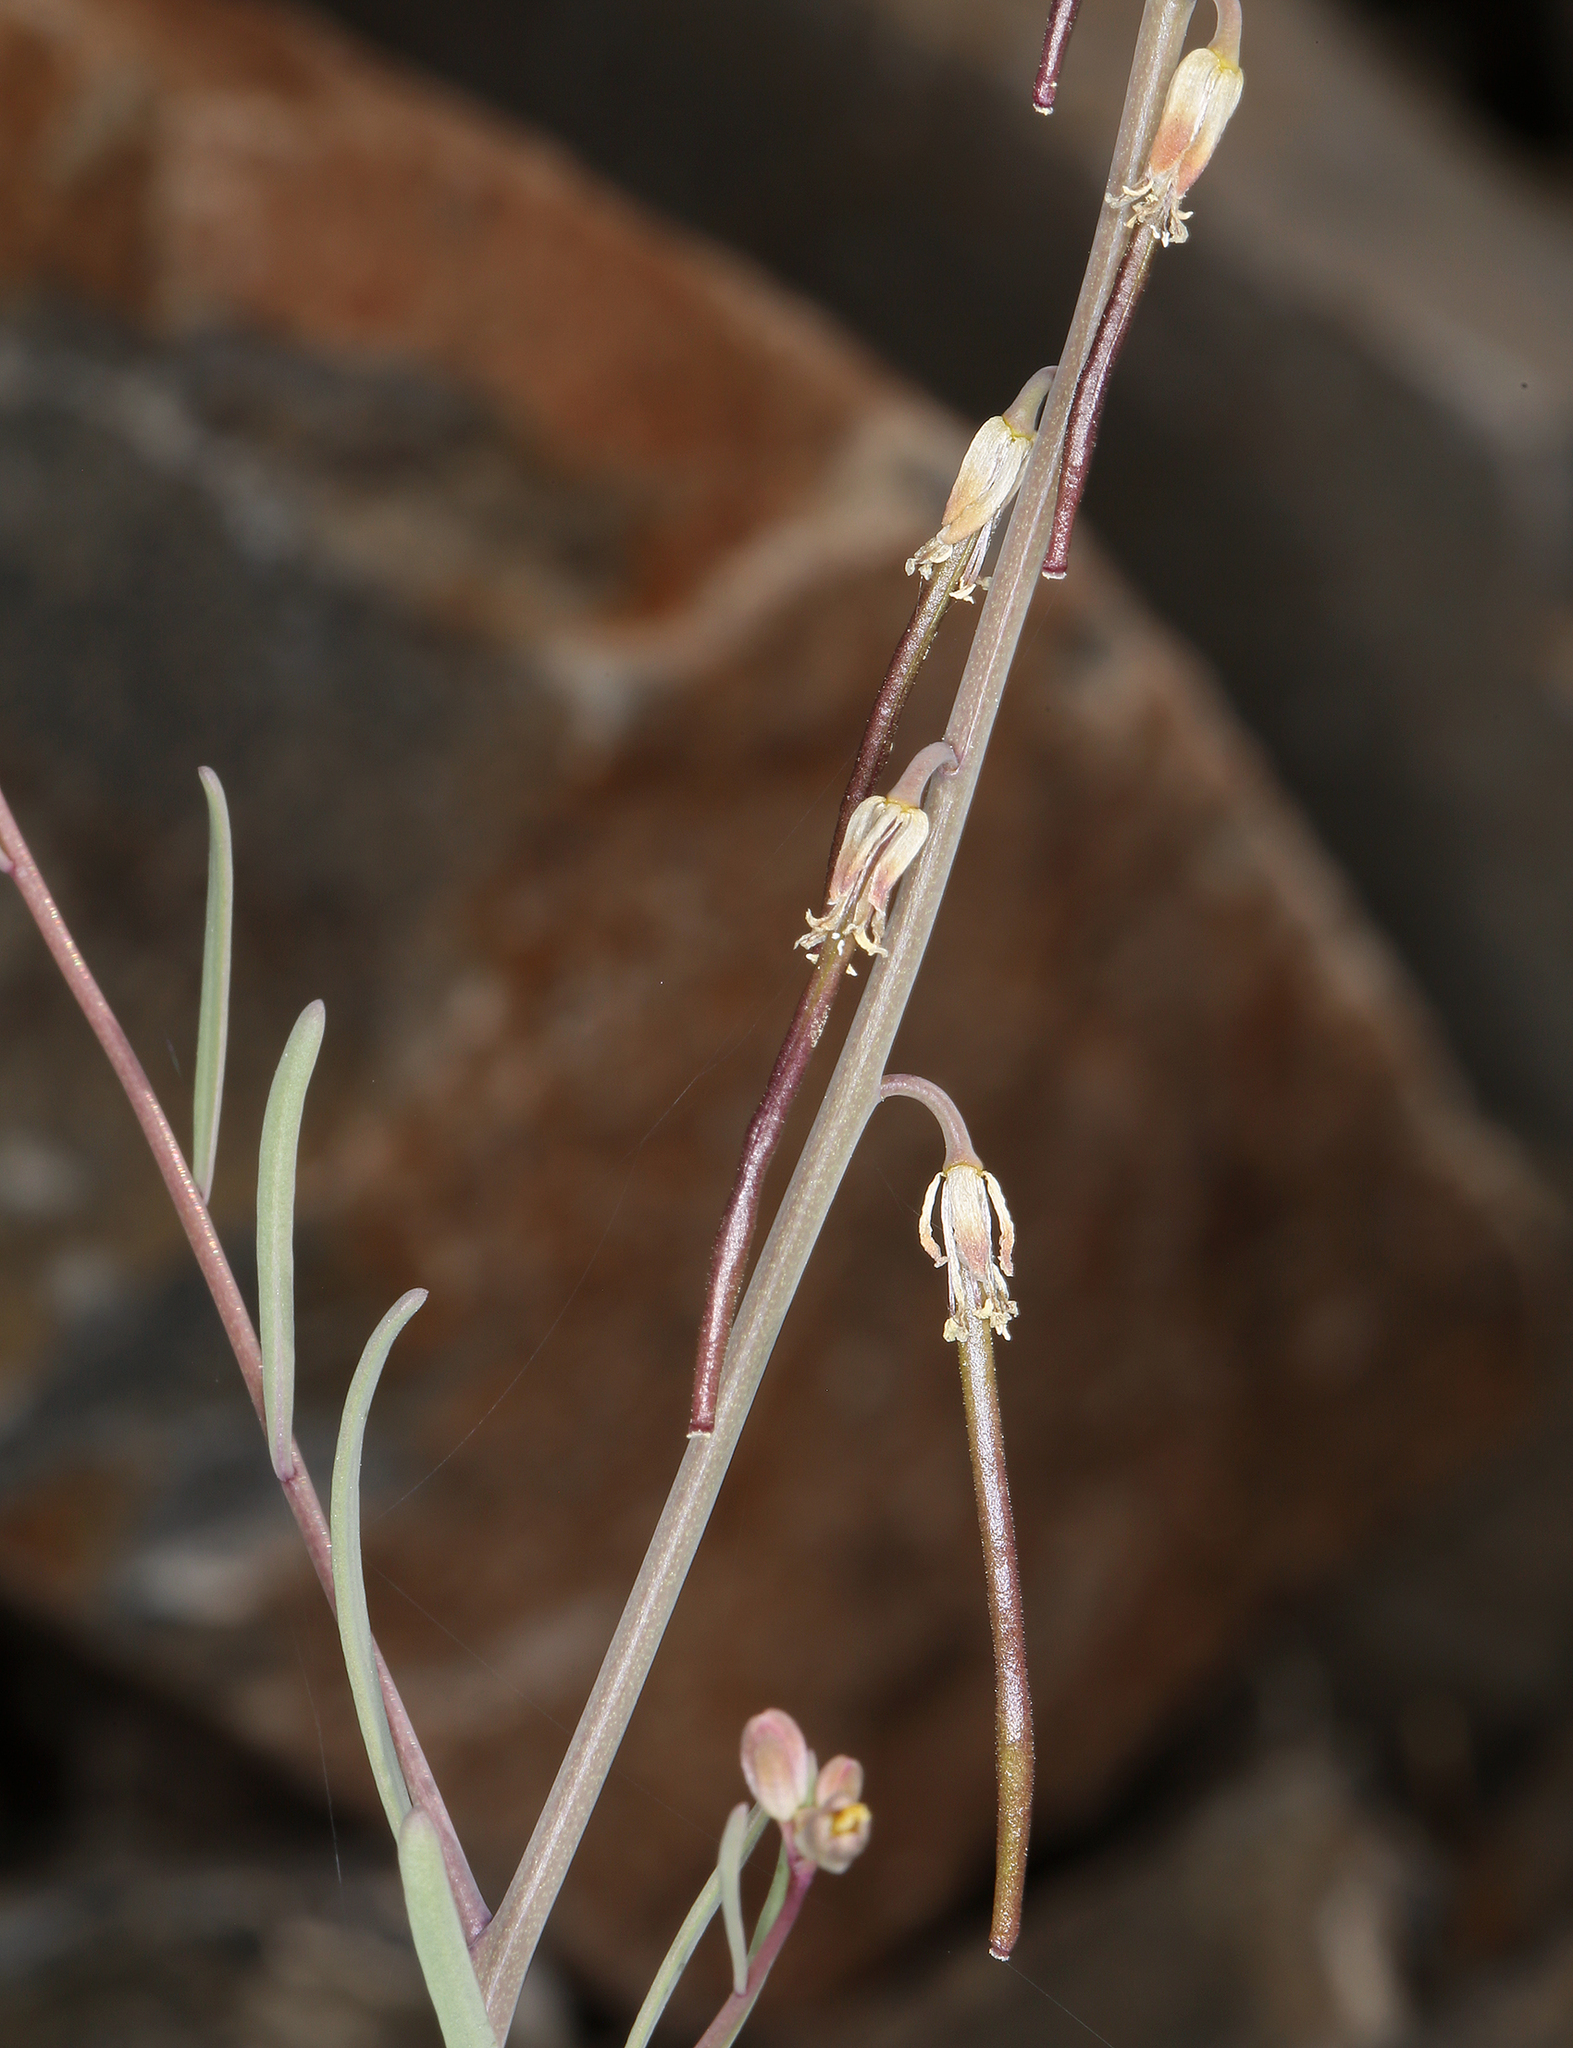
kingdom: Plantae
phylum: Tracheophyta
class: Magnoliopsida
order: Brassicales
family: Brassicaceae
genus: Streptanthus
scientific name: Streptanthus longirostris
